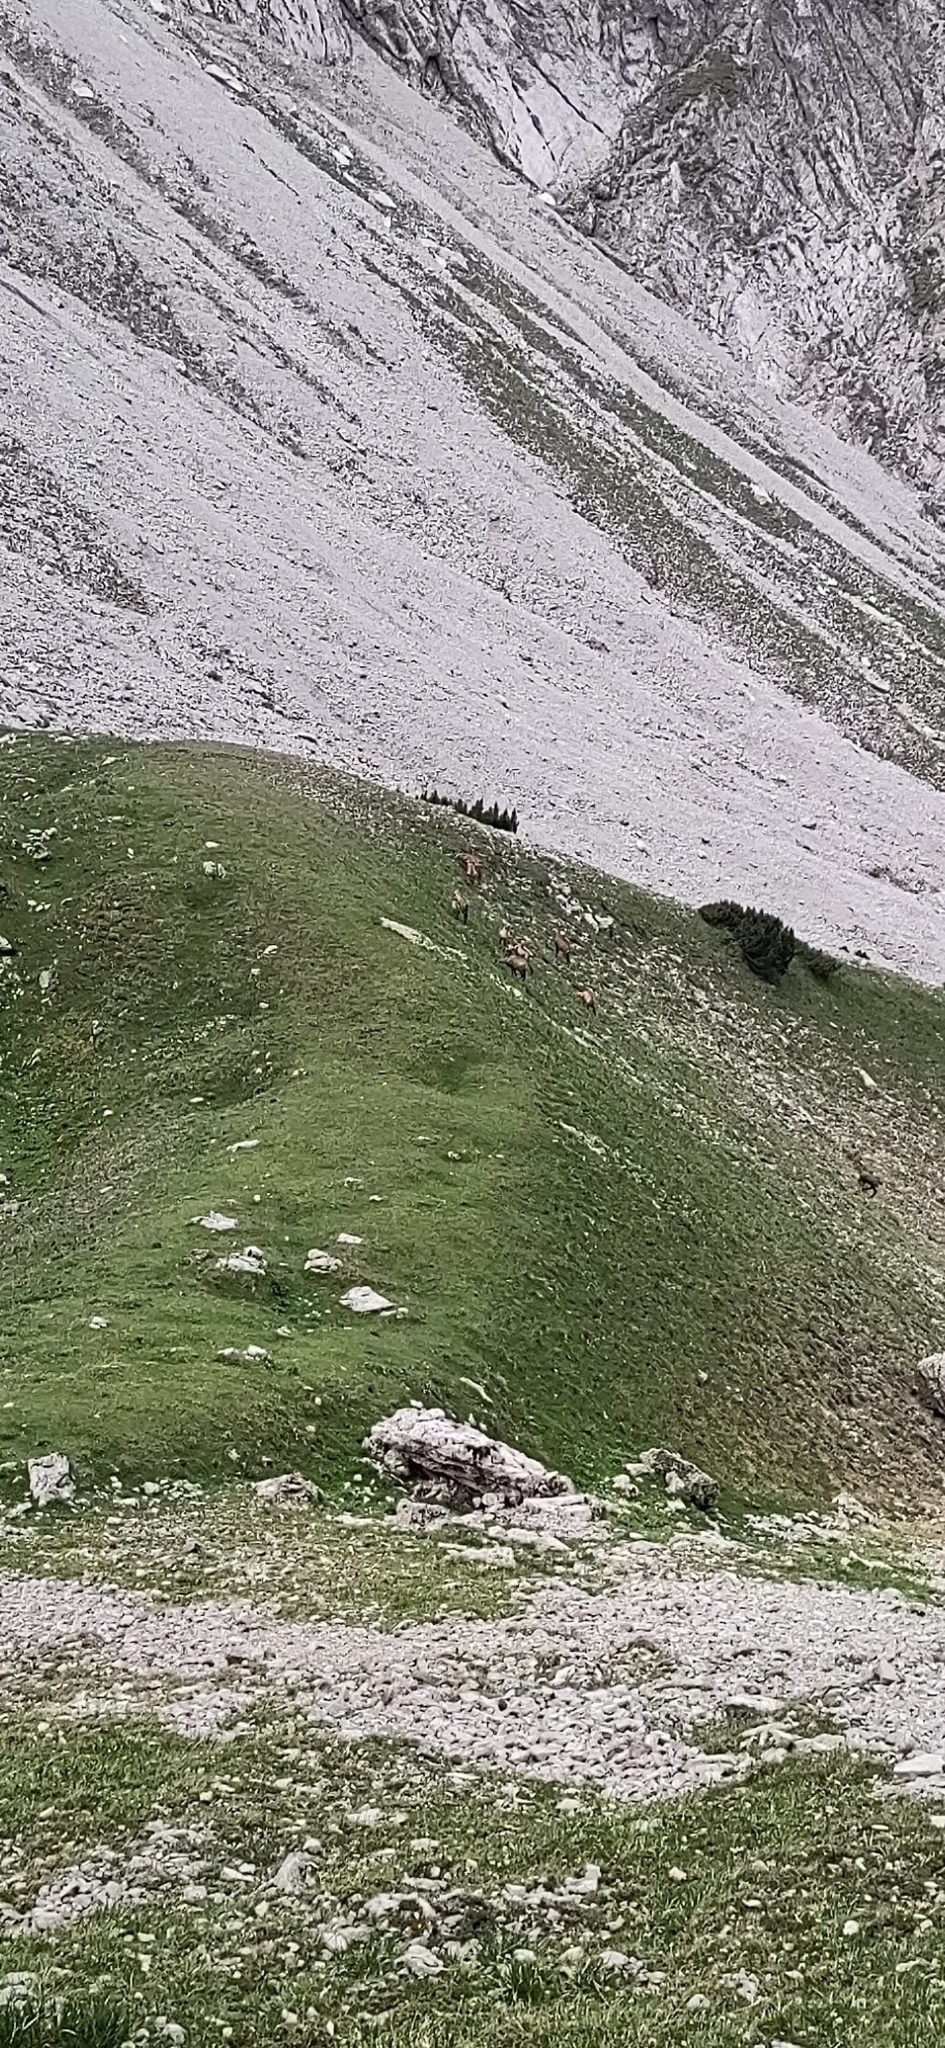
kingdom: Animalia
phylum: Chordata
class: Mammalia
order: Artiodactyla
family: Bovidae
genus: Rupicapra
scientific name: Rupicapra rupicapra
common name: Chamois
